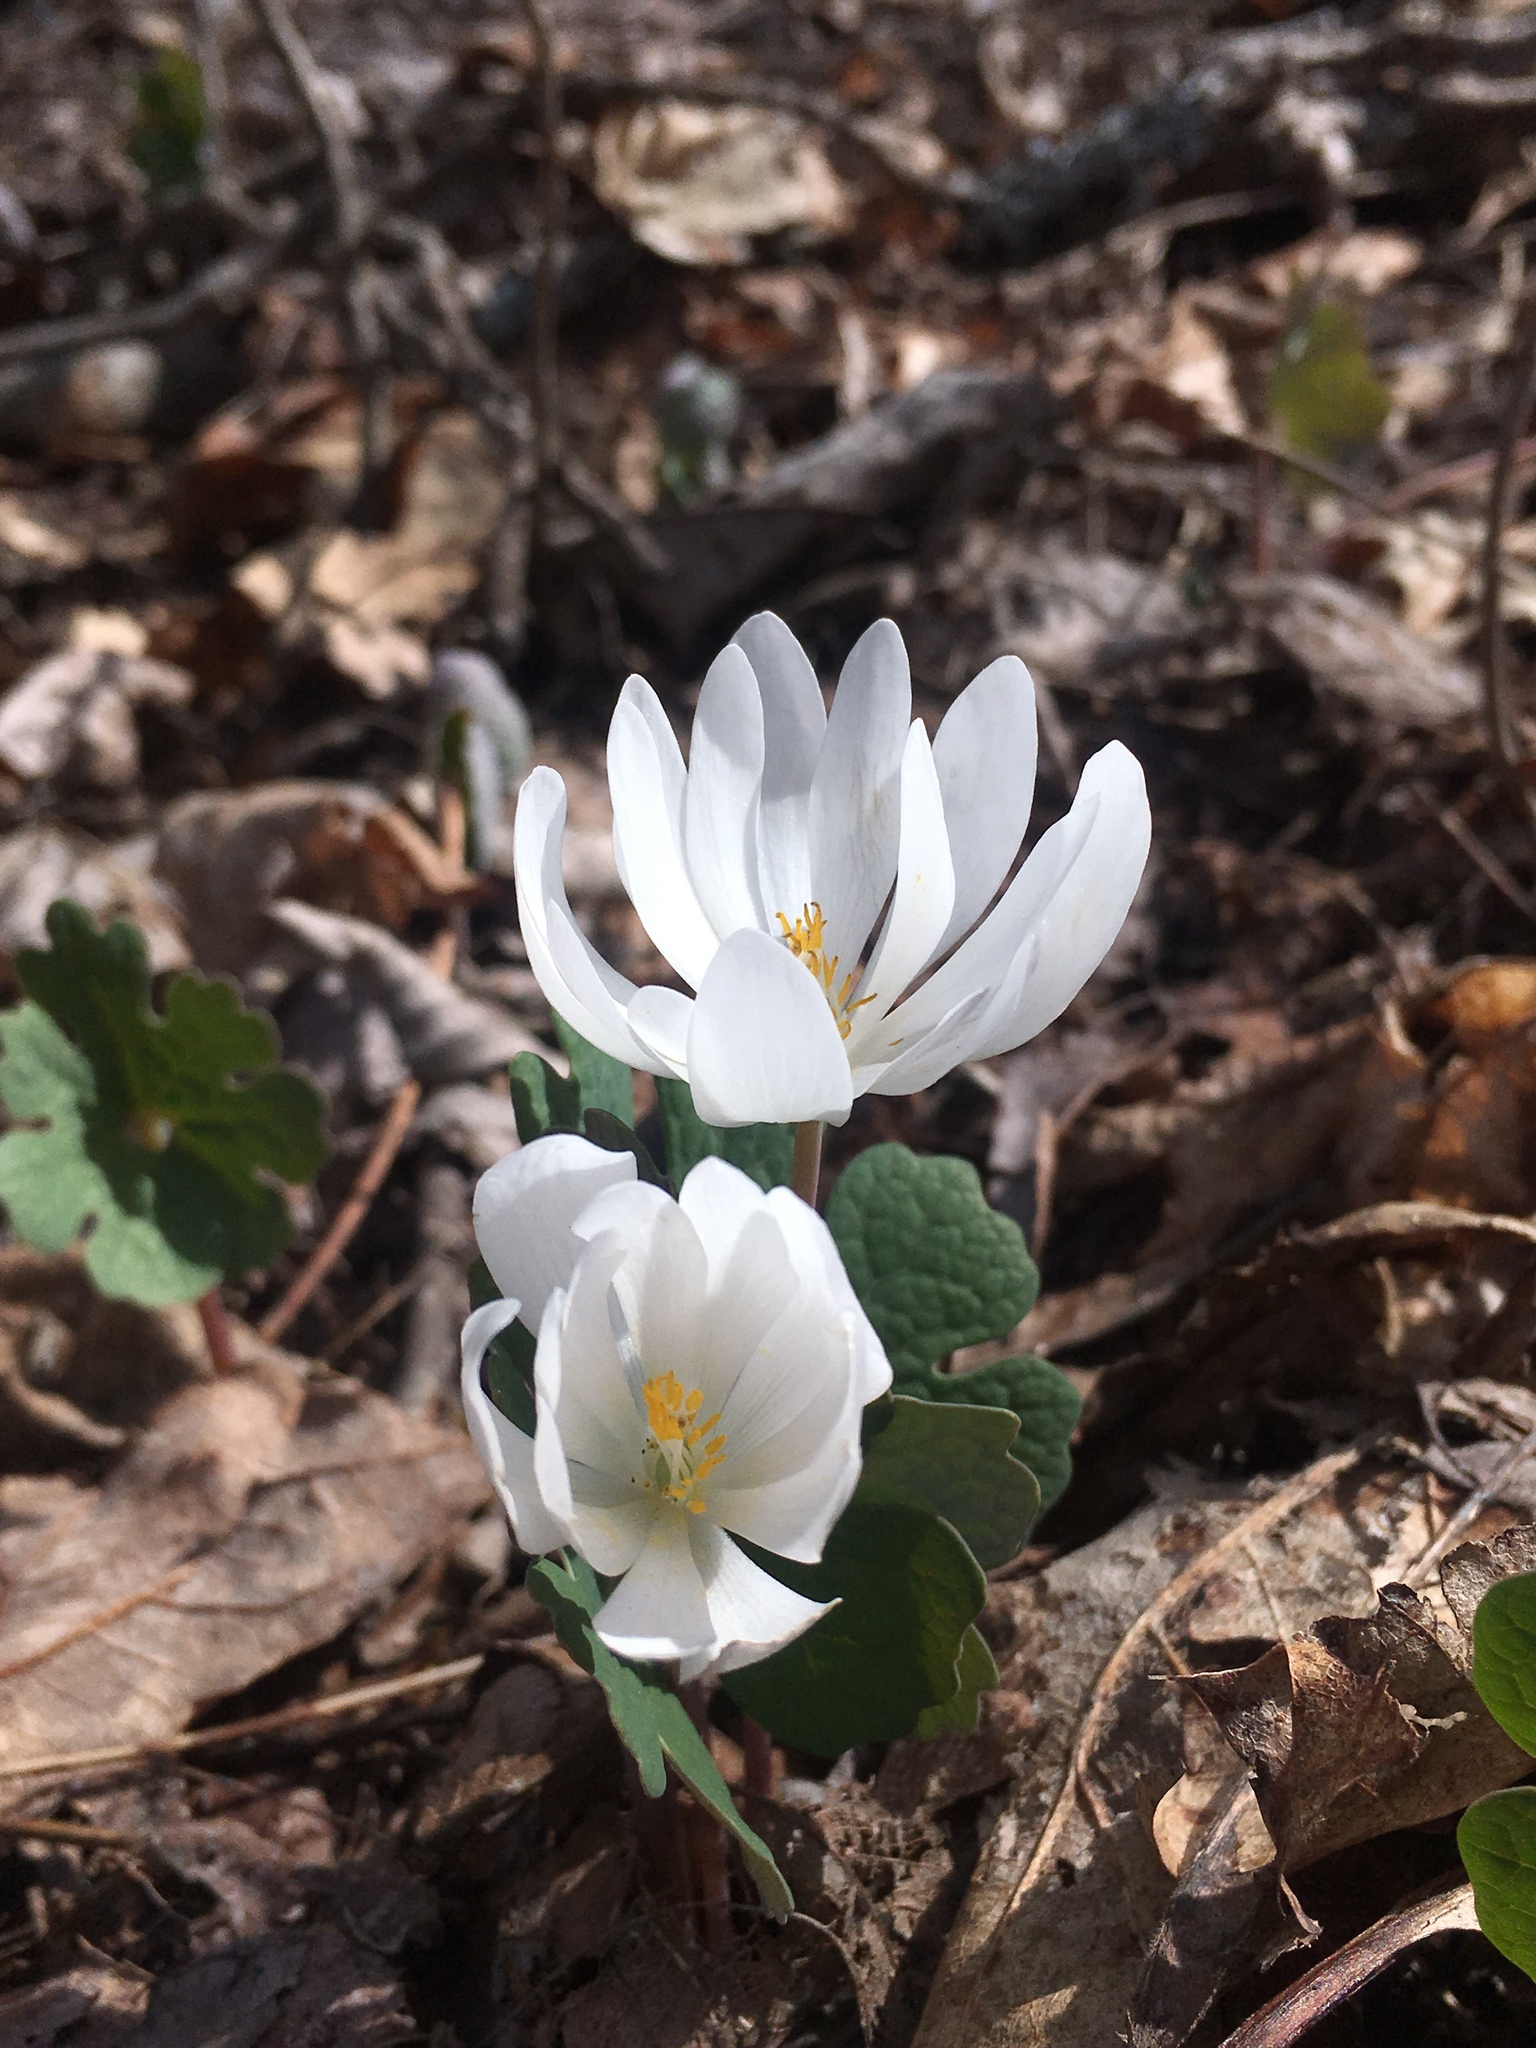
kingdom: Plantae
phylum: Tracheophyta
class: Magnoliopsida
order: Ranunculales
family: Papaveraceae
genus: Sanguinaria
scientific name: Sanguinaria canadensis
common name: Bloodroot
